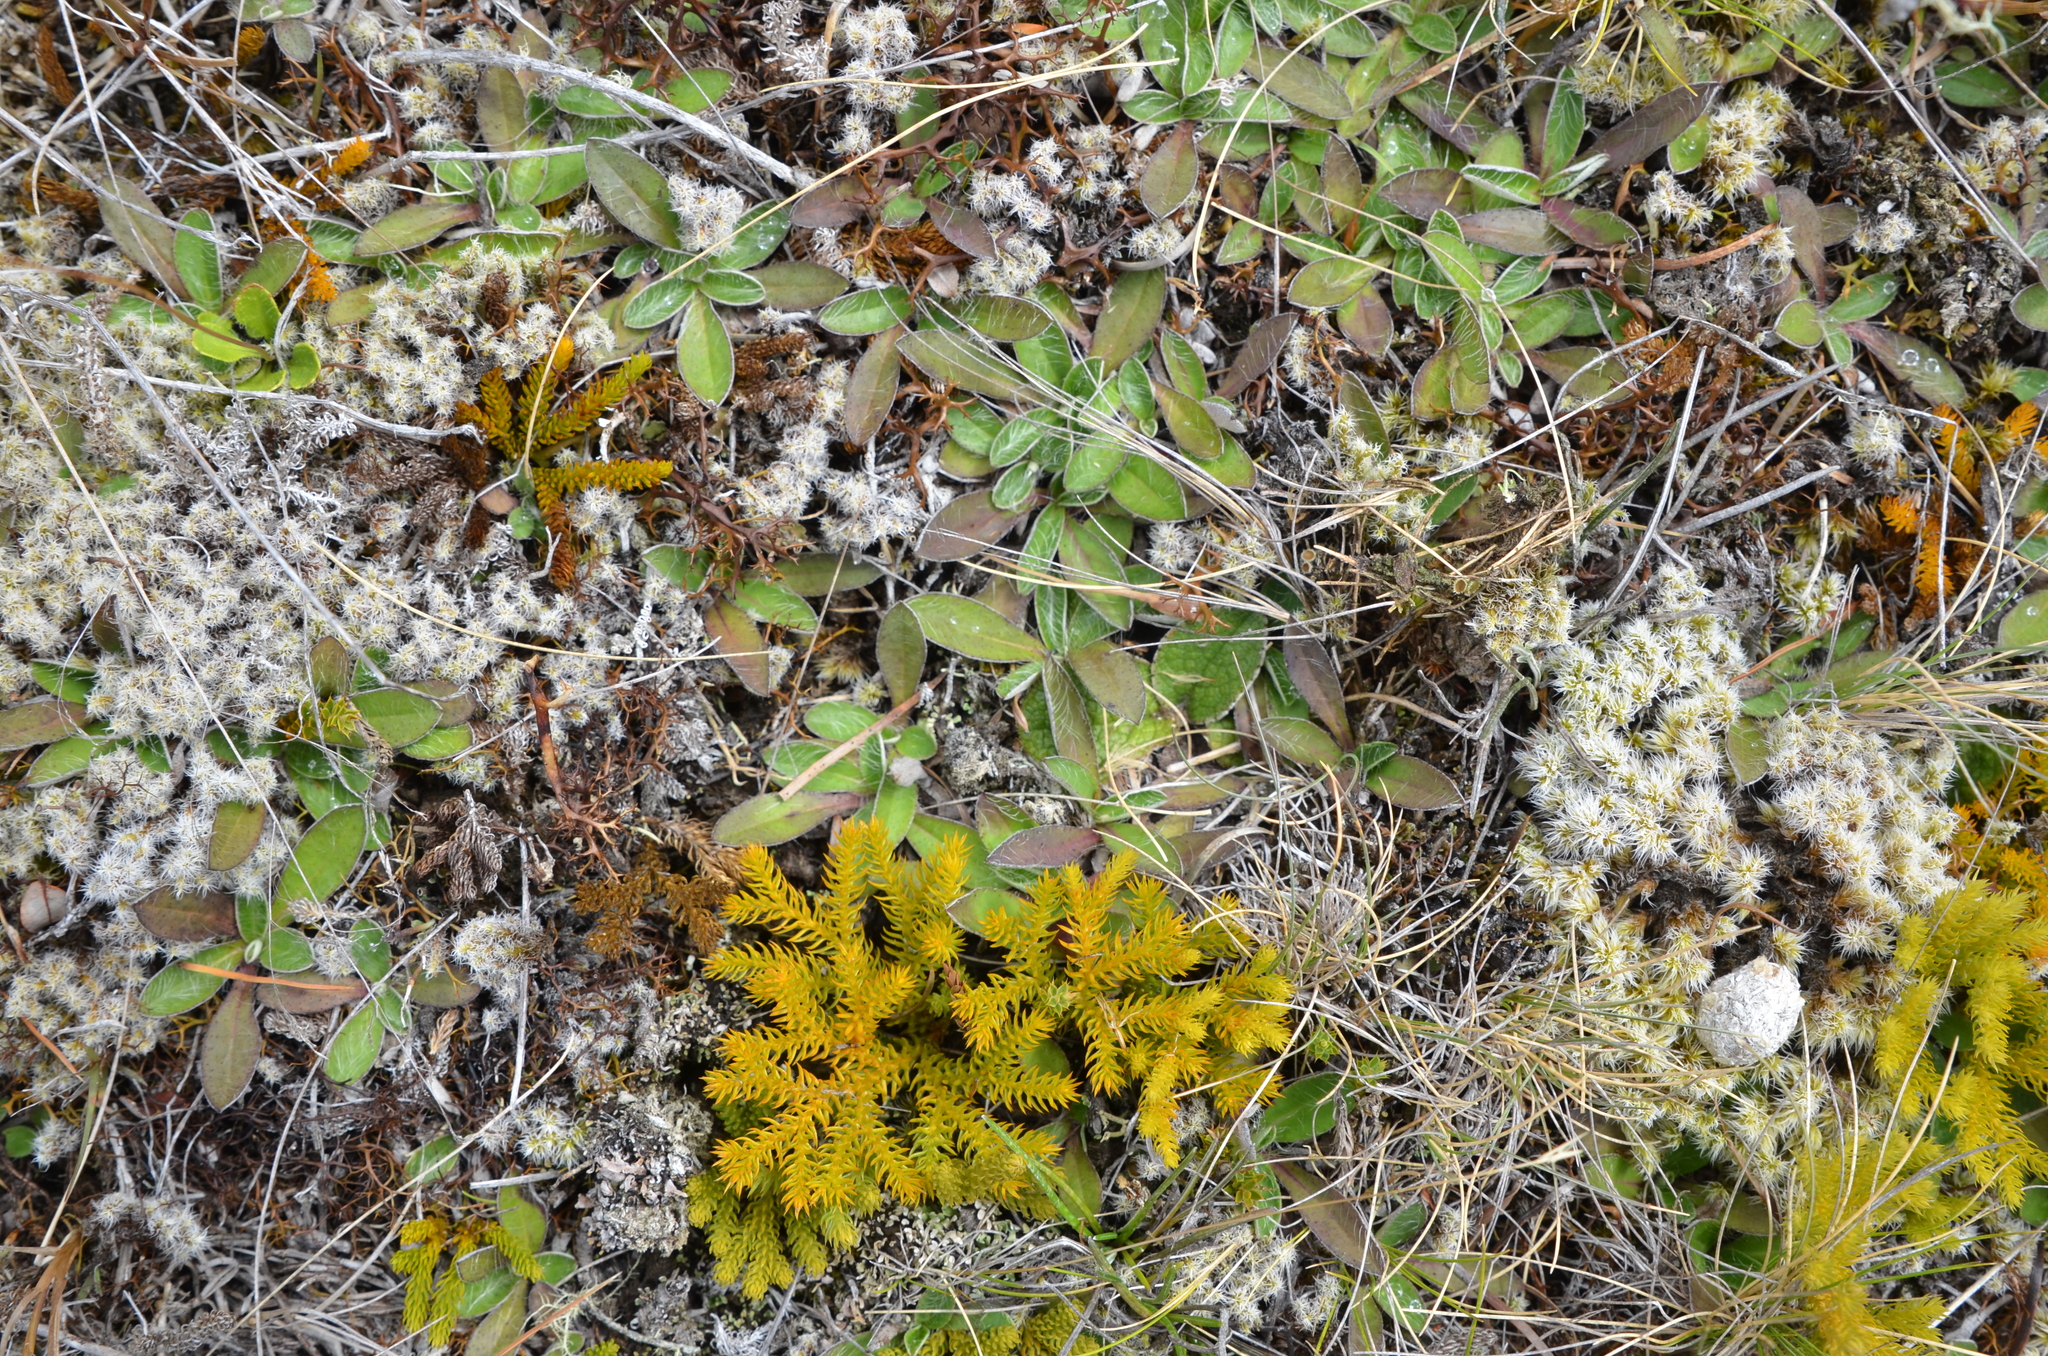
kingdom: Plantae
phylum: Tracheophyta
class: Lycopodiopsida
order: Lycopodiales
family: Lycopodiaceae
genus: Austrolycopodium
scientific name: Austrolycopodium fastigiatum
